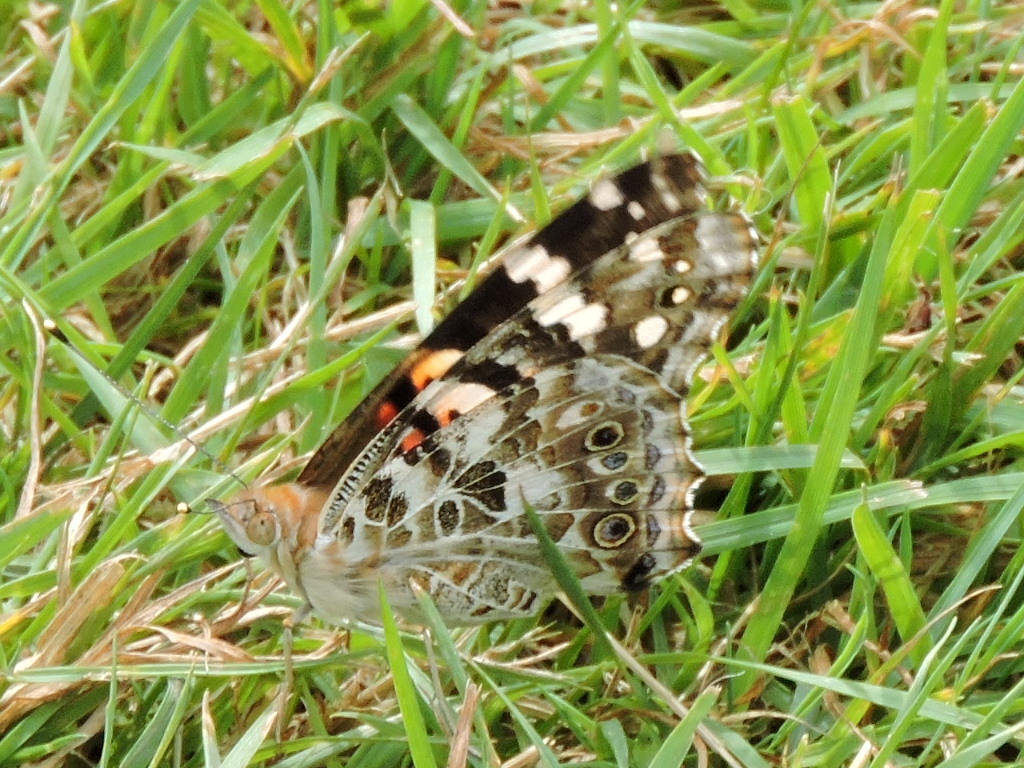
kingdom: Animalia
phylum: Arthropoda
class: Insecta
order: Lepidoptera
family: Nymphalidae
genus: Vanessa
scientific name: Vanessa cardui
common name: Painted lady
